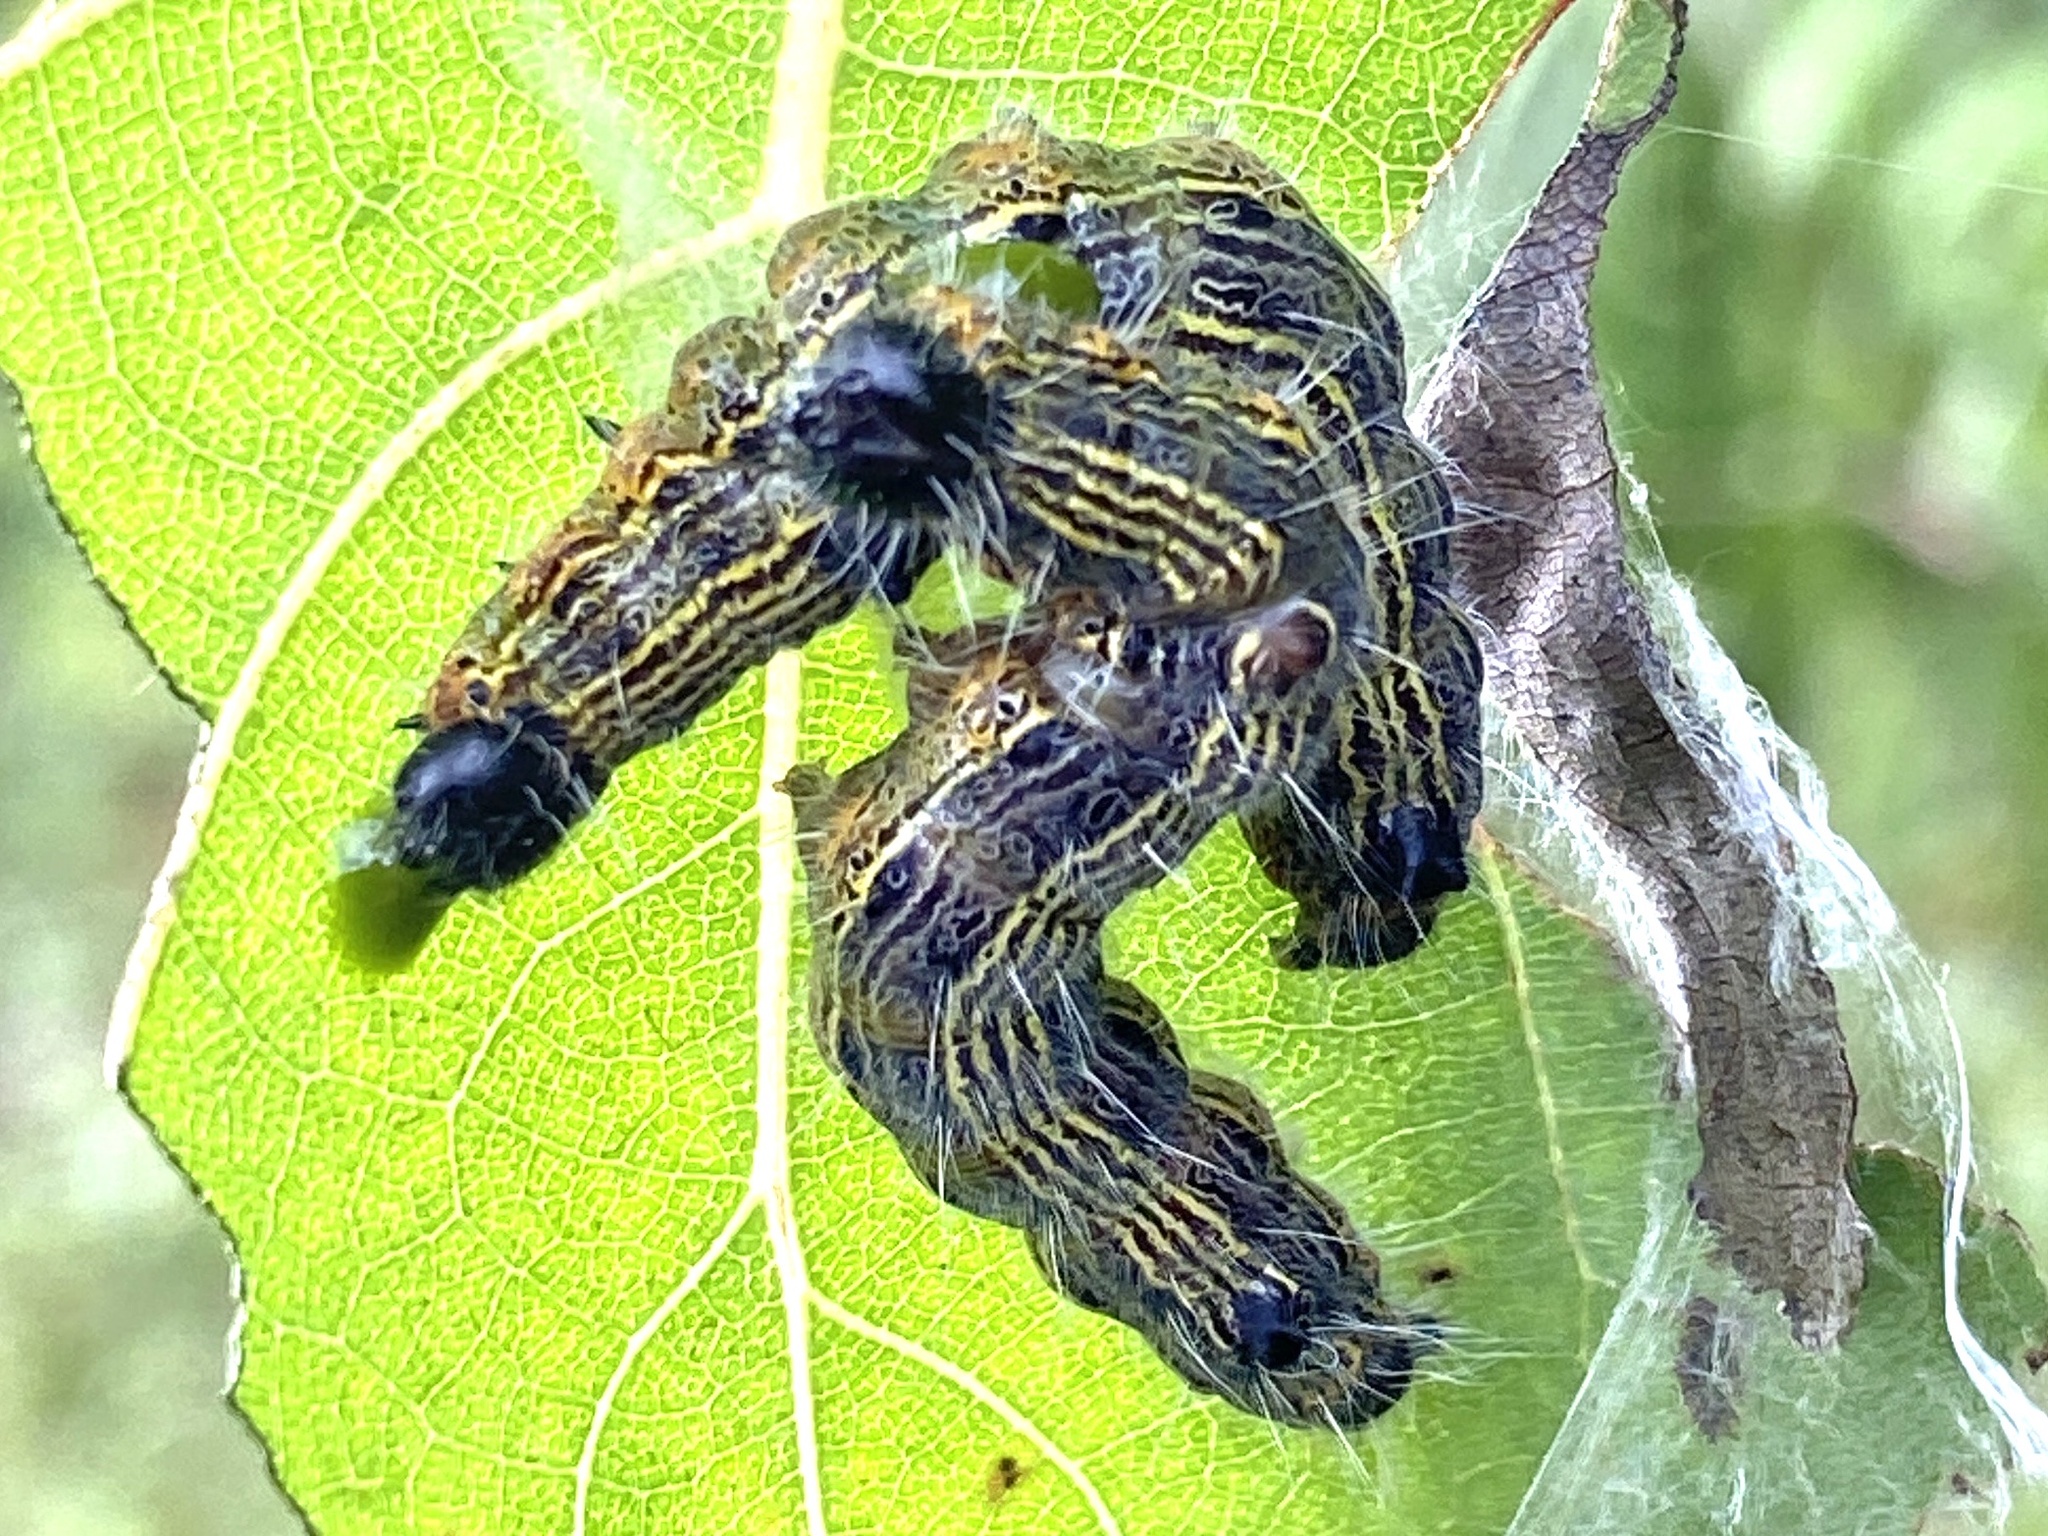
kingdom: Animalia
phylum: Arthropoda
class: Insecta
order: Lepidoptera
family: Notodontidae
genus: Clostera
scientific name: Clostera inclusa
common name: Angle-lined prominent
